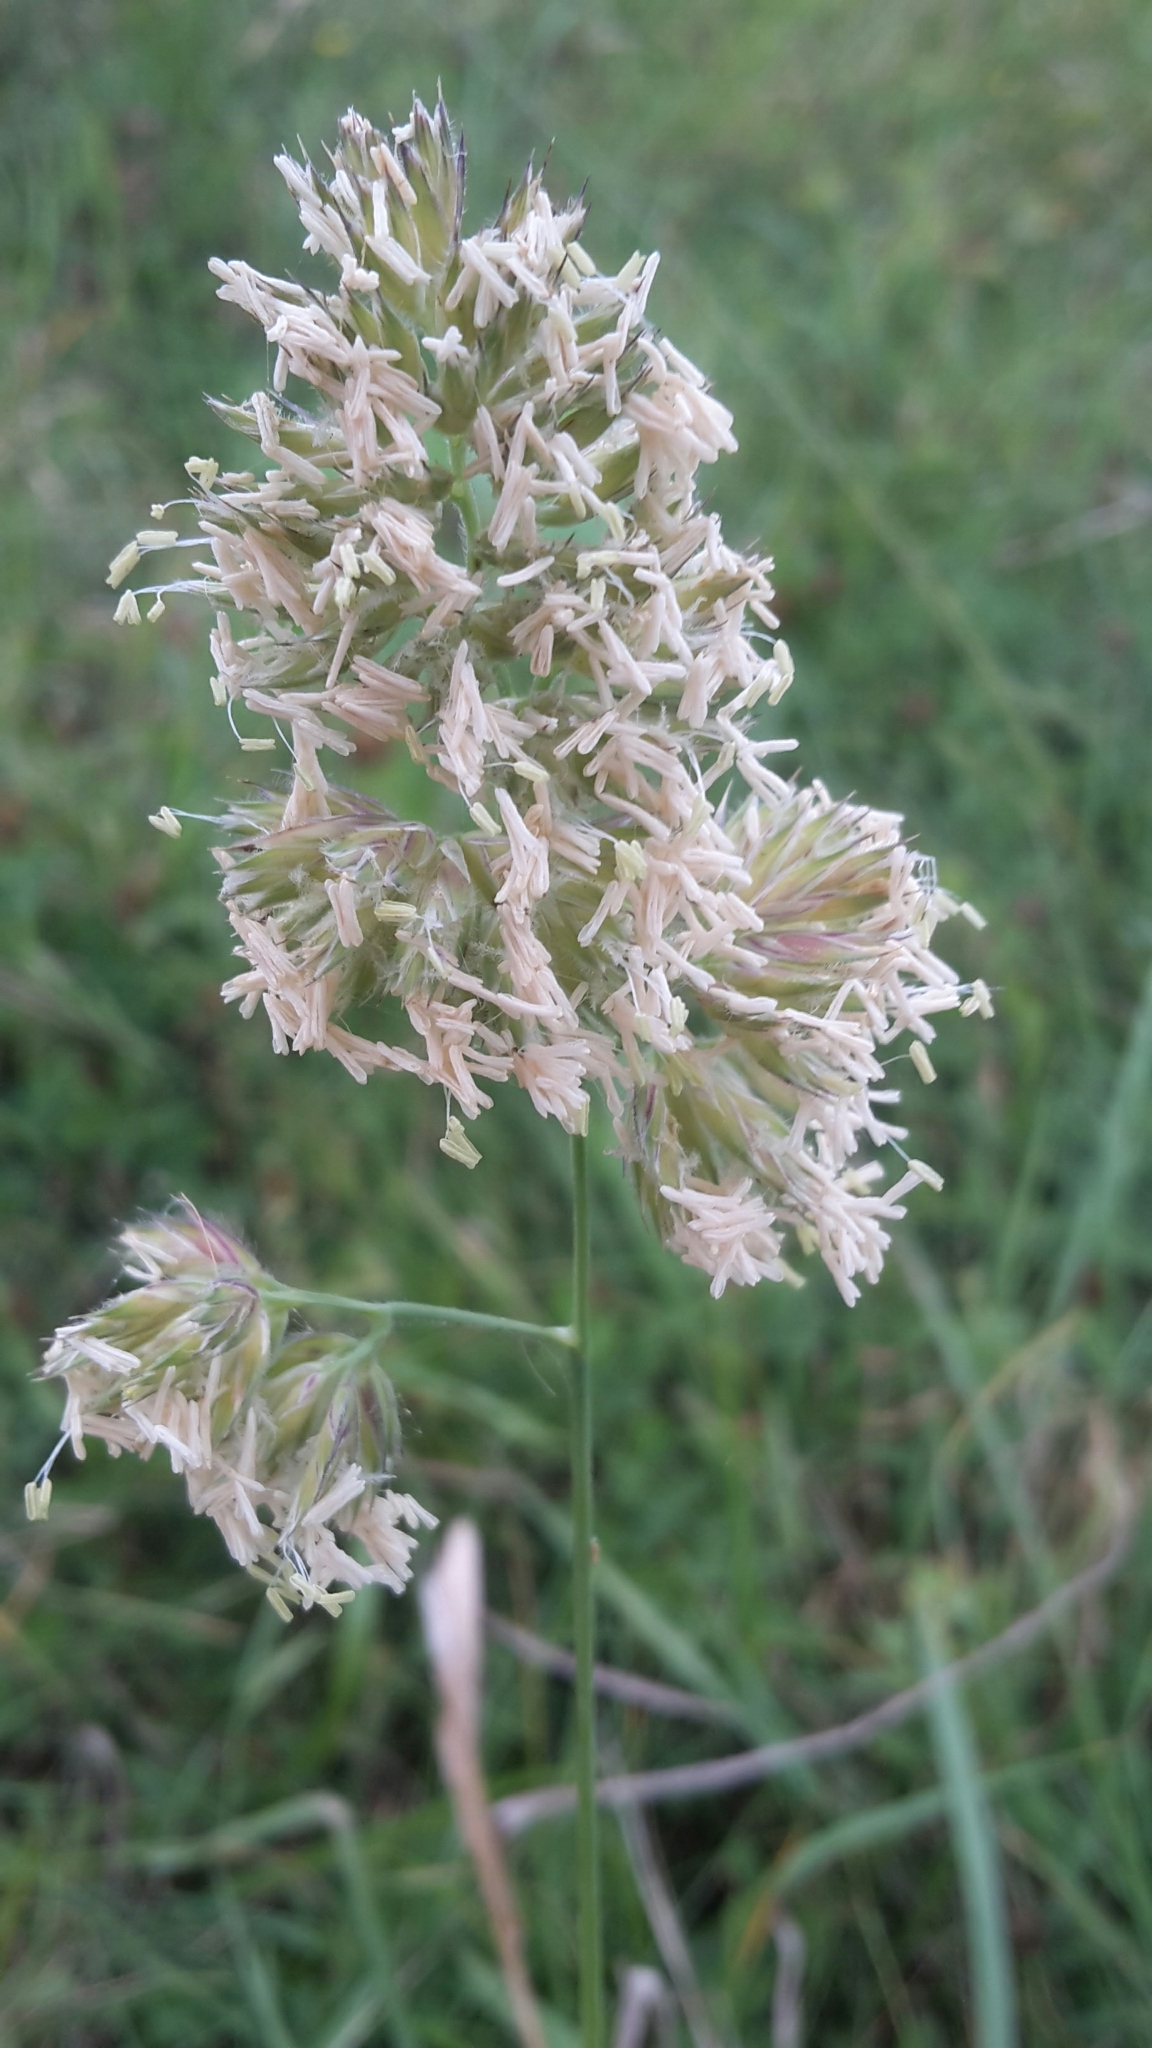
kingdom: Plantae
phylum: Tracheophyta
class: Liliopsida
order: Poales
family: Poaceae
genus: Dactylis
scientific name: Dactylis glomerata
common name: Orchardgrass
